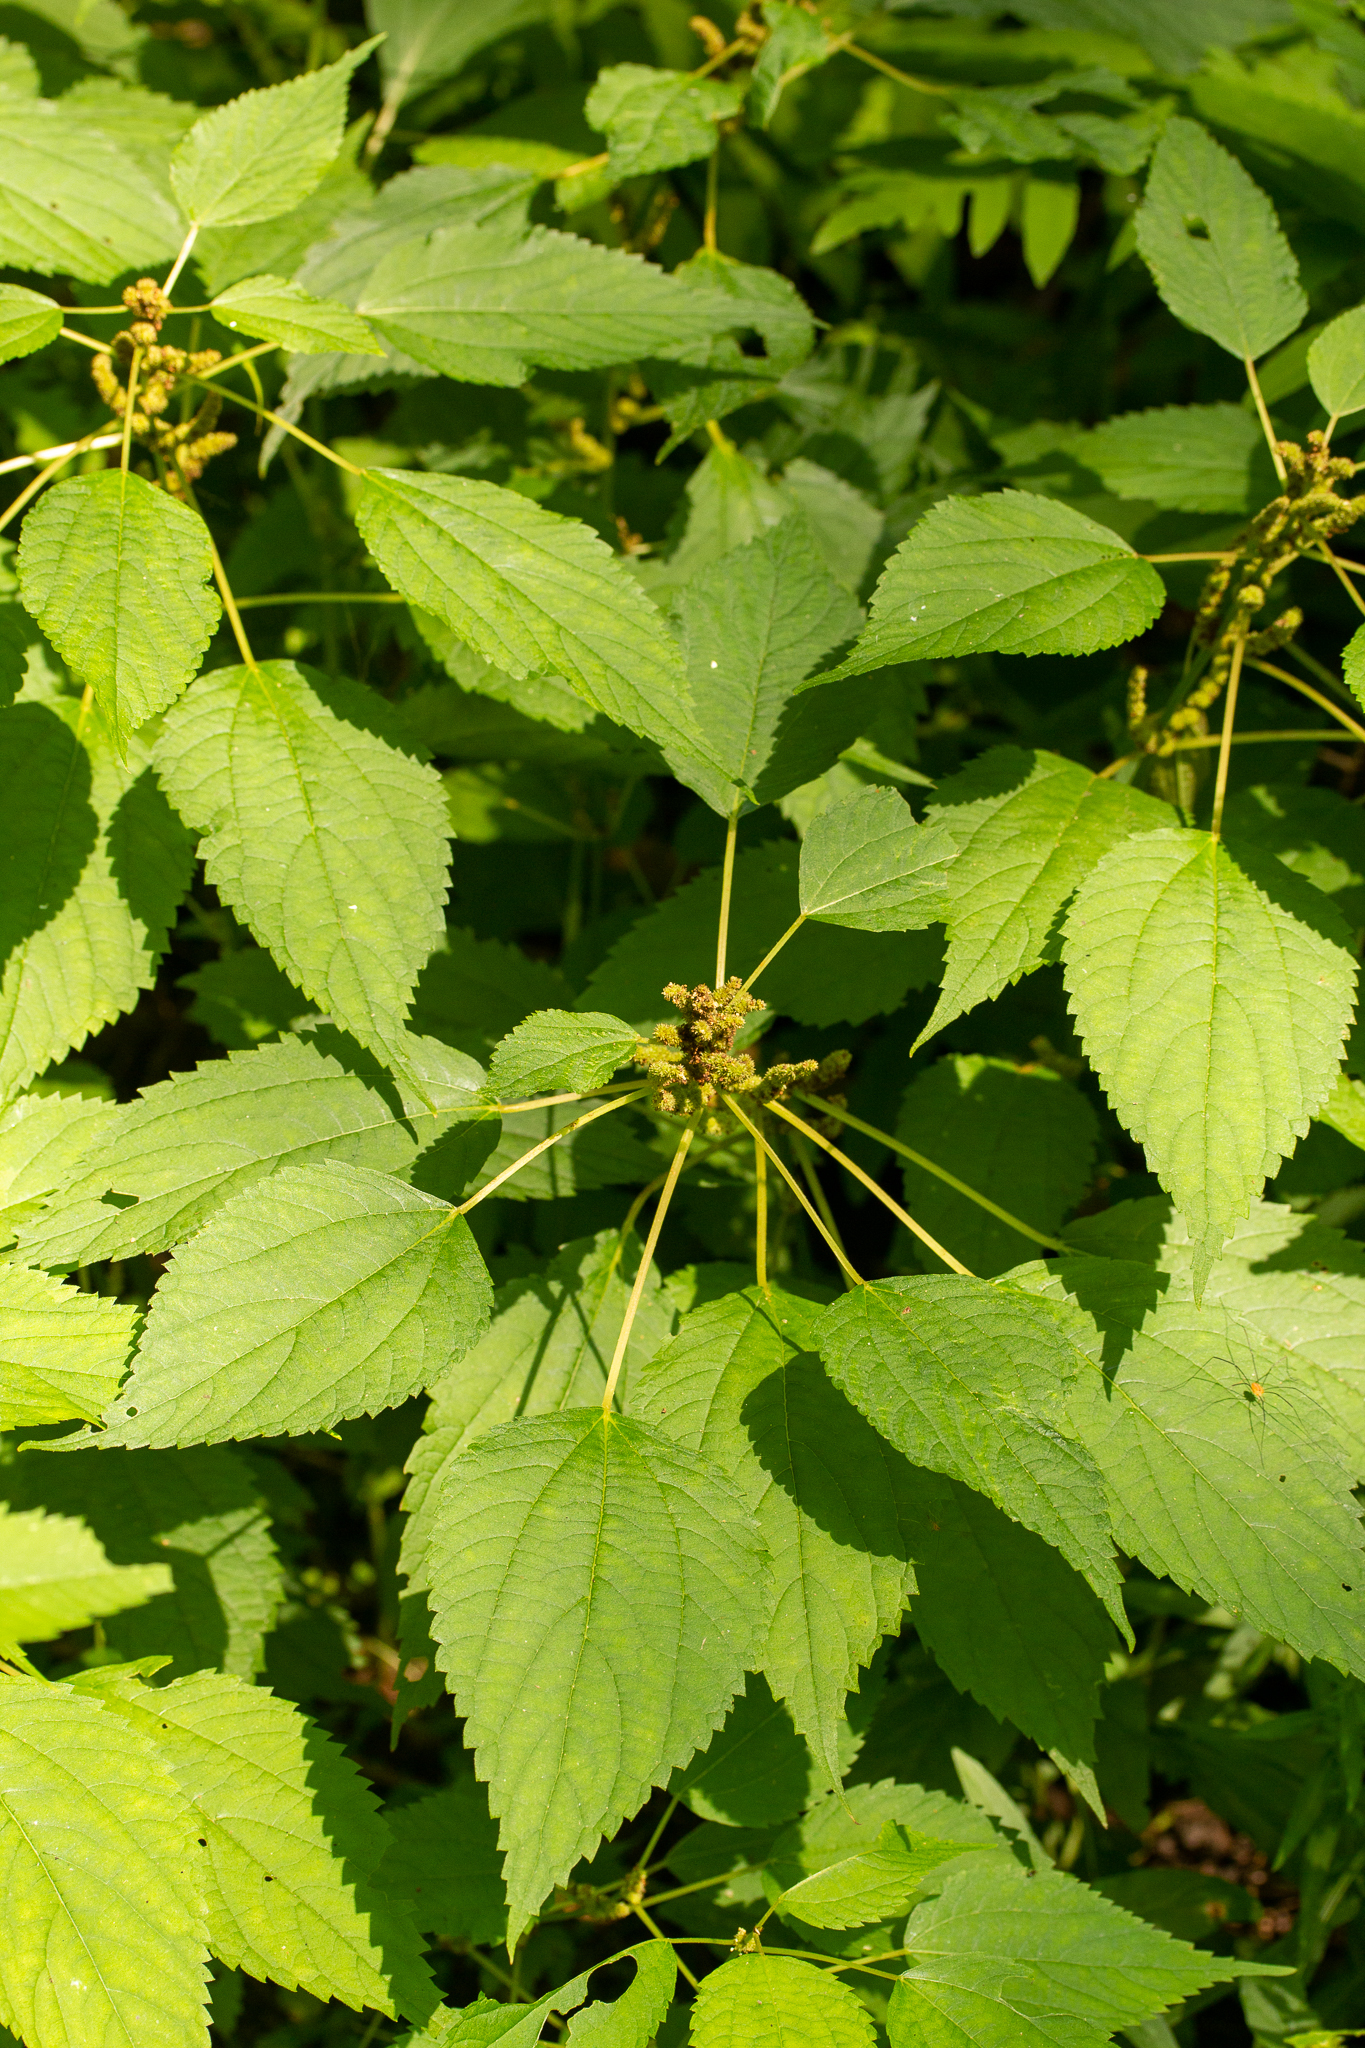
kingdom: Plantae
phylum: Tracheophyta
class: Magnoliopsida
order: Rosales
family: Urticaceae
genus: Boehmeria
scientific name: Boehmeria cylindrica
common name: Bog-hemp
